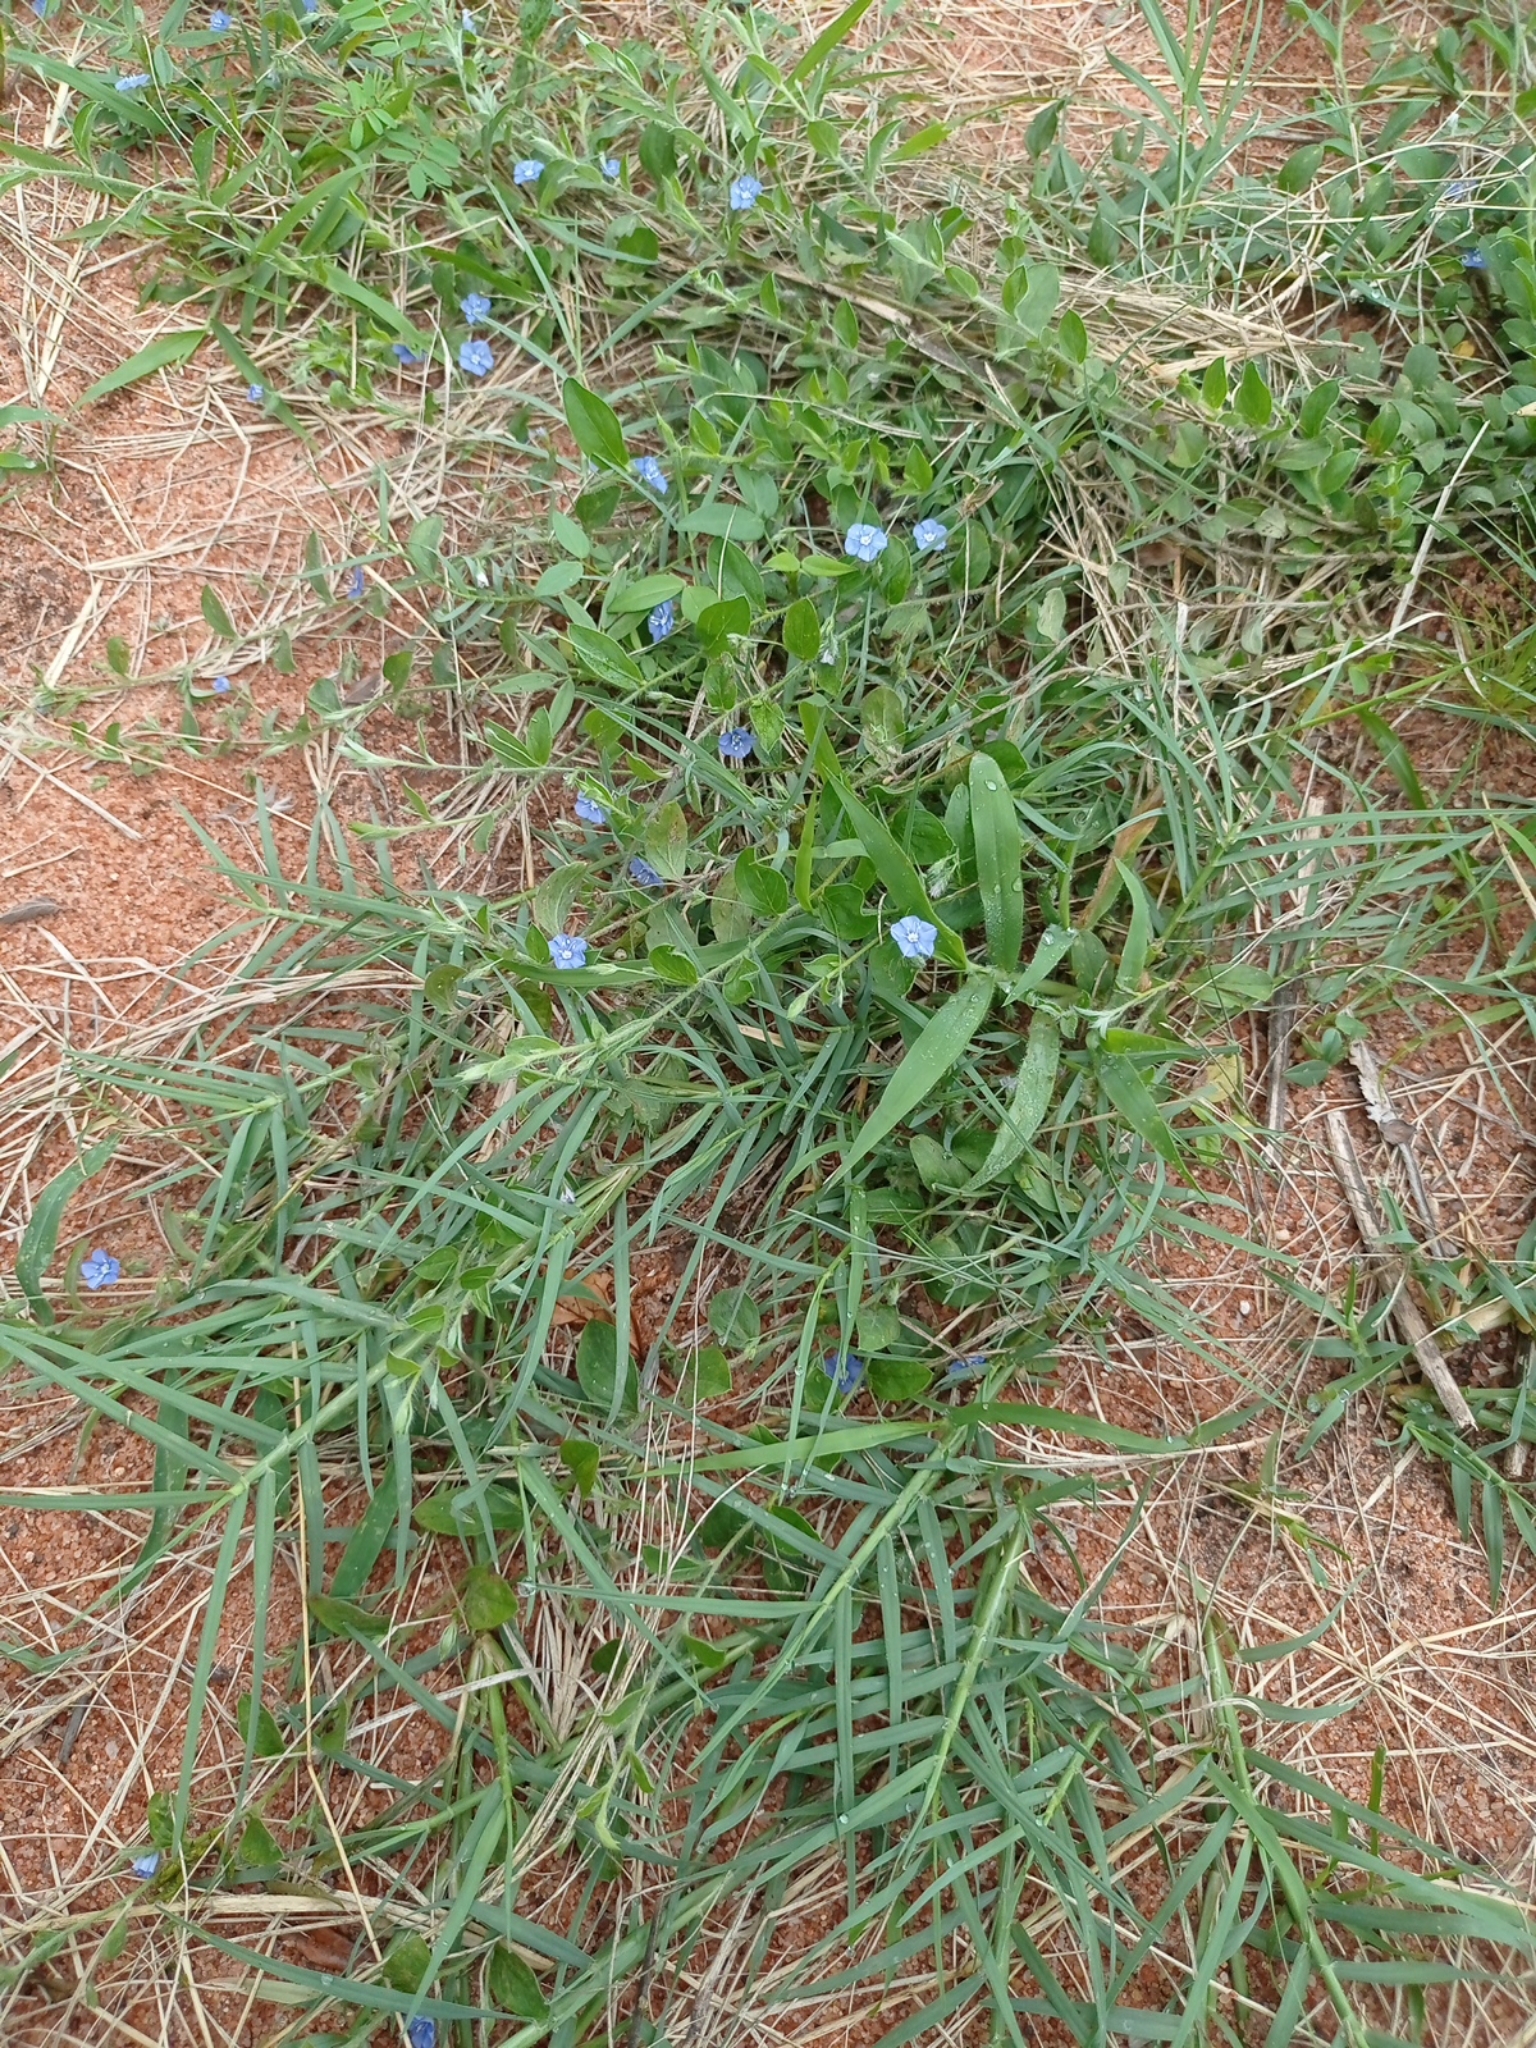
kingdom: Plantae
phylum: Tracheophyta
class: Magnoliopsida
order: Solanales
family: Convolvulaceae
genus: Evolvulus
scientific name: Evolvulus alsinoides
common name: Slender dwarf morning-glory
